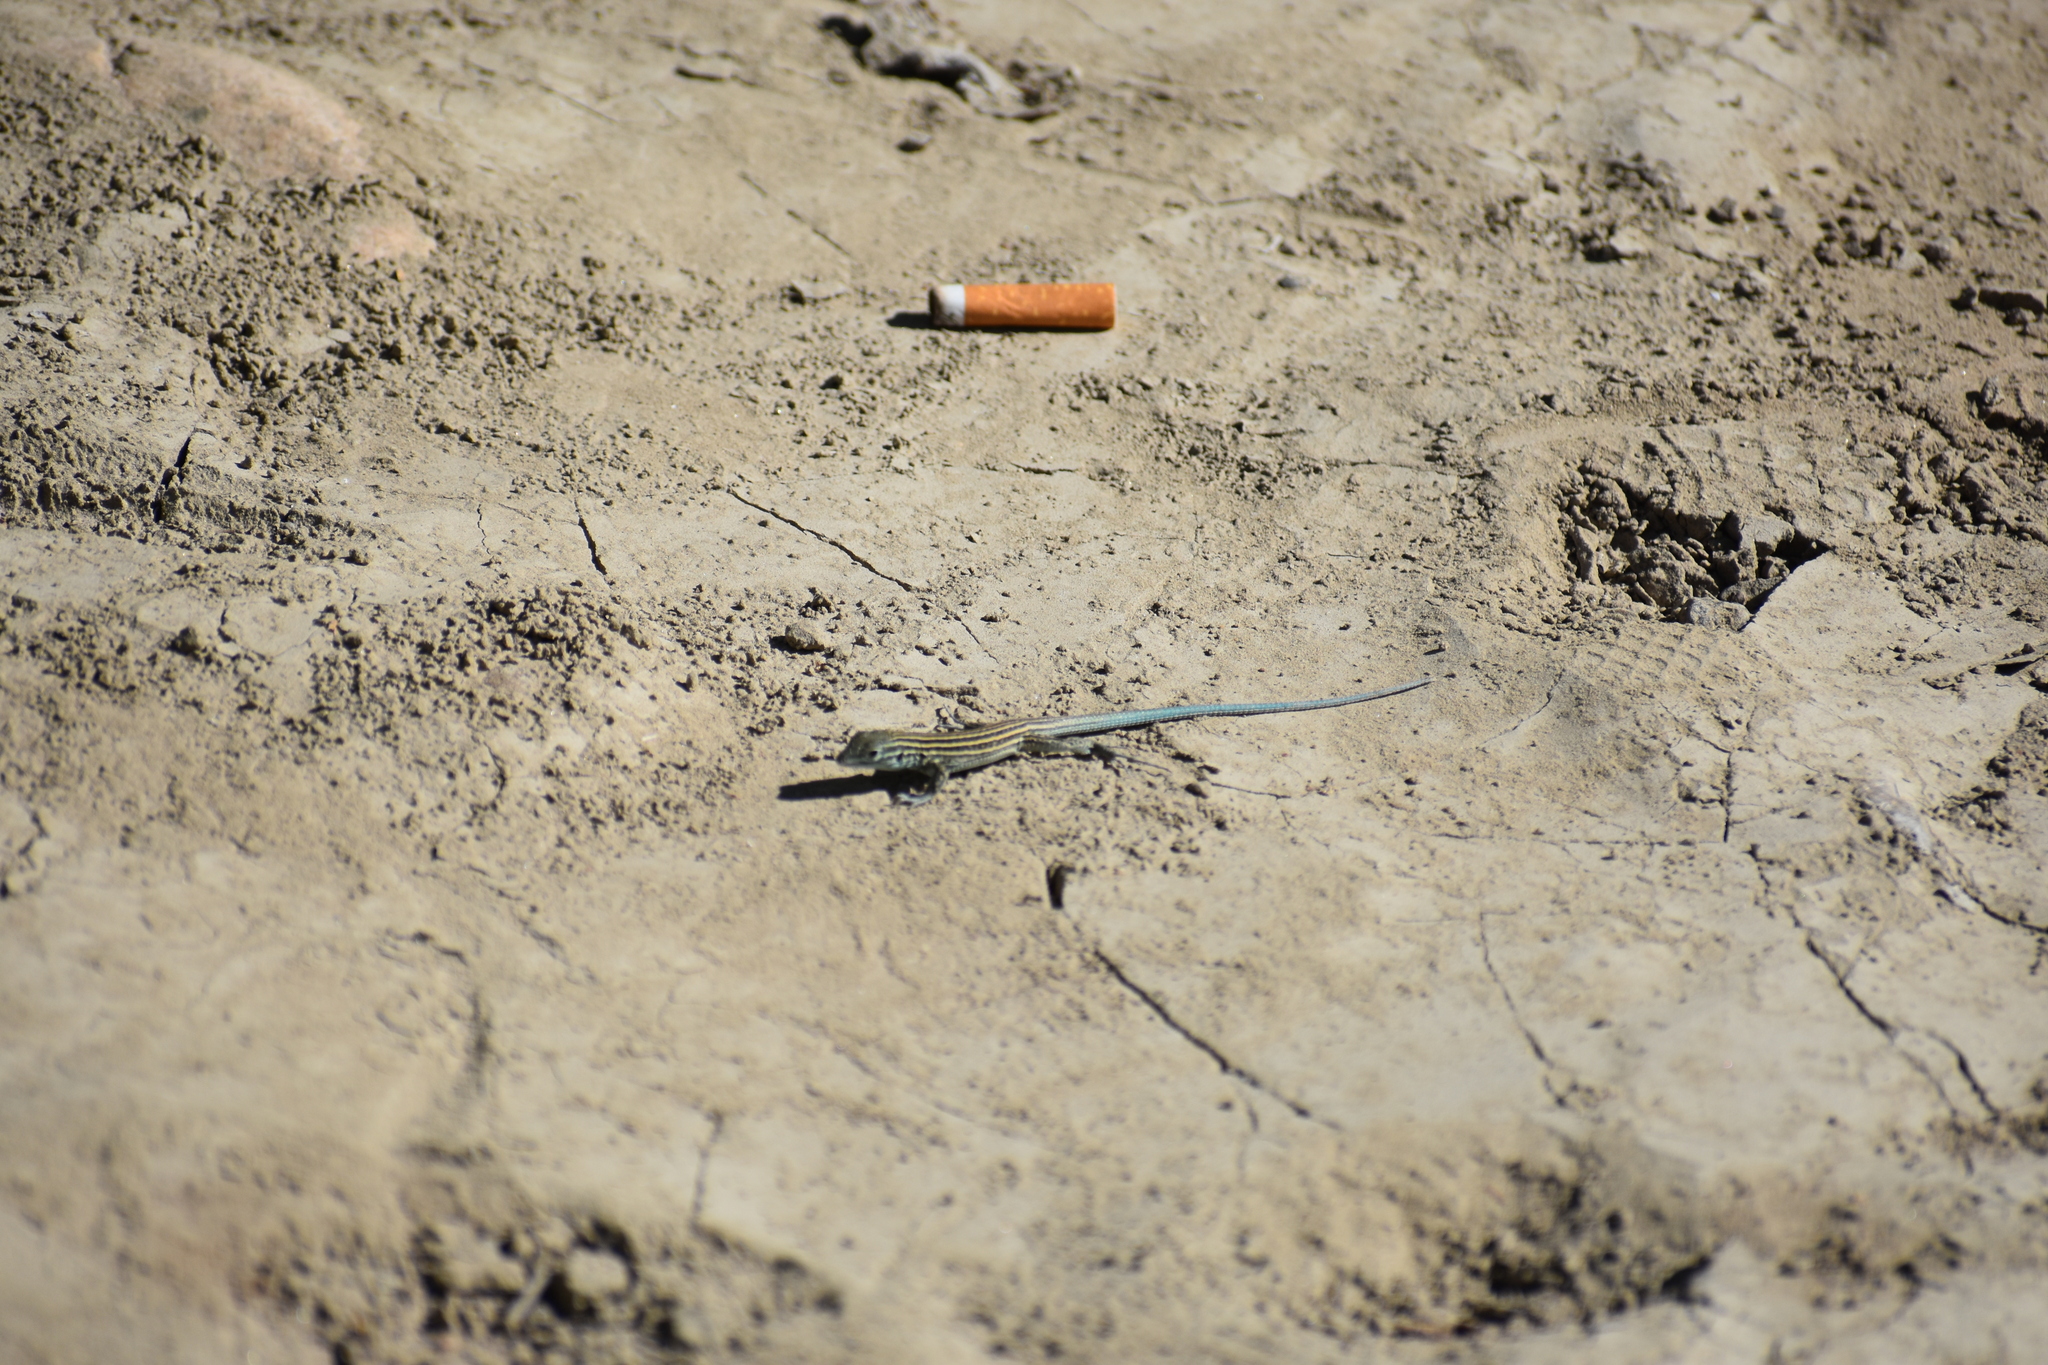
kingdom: Animalia
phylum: Chordata
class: Squamata
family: Teiidae
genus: Aspidoscelis
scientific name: Aspidoscelis velox
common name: Plateau striped whiptail
